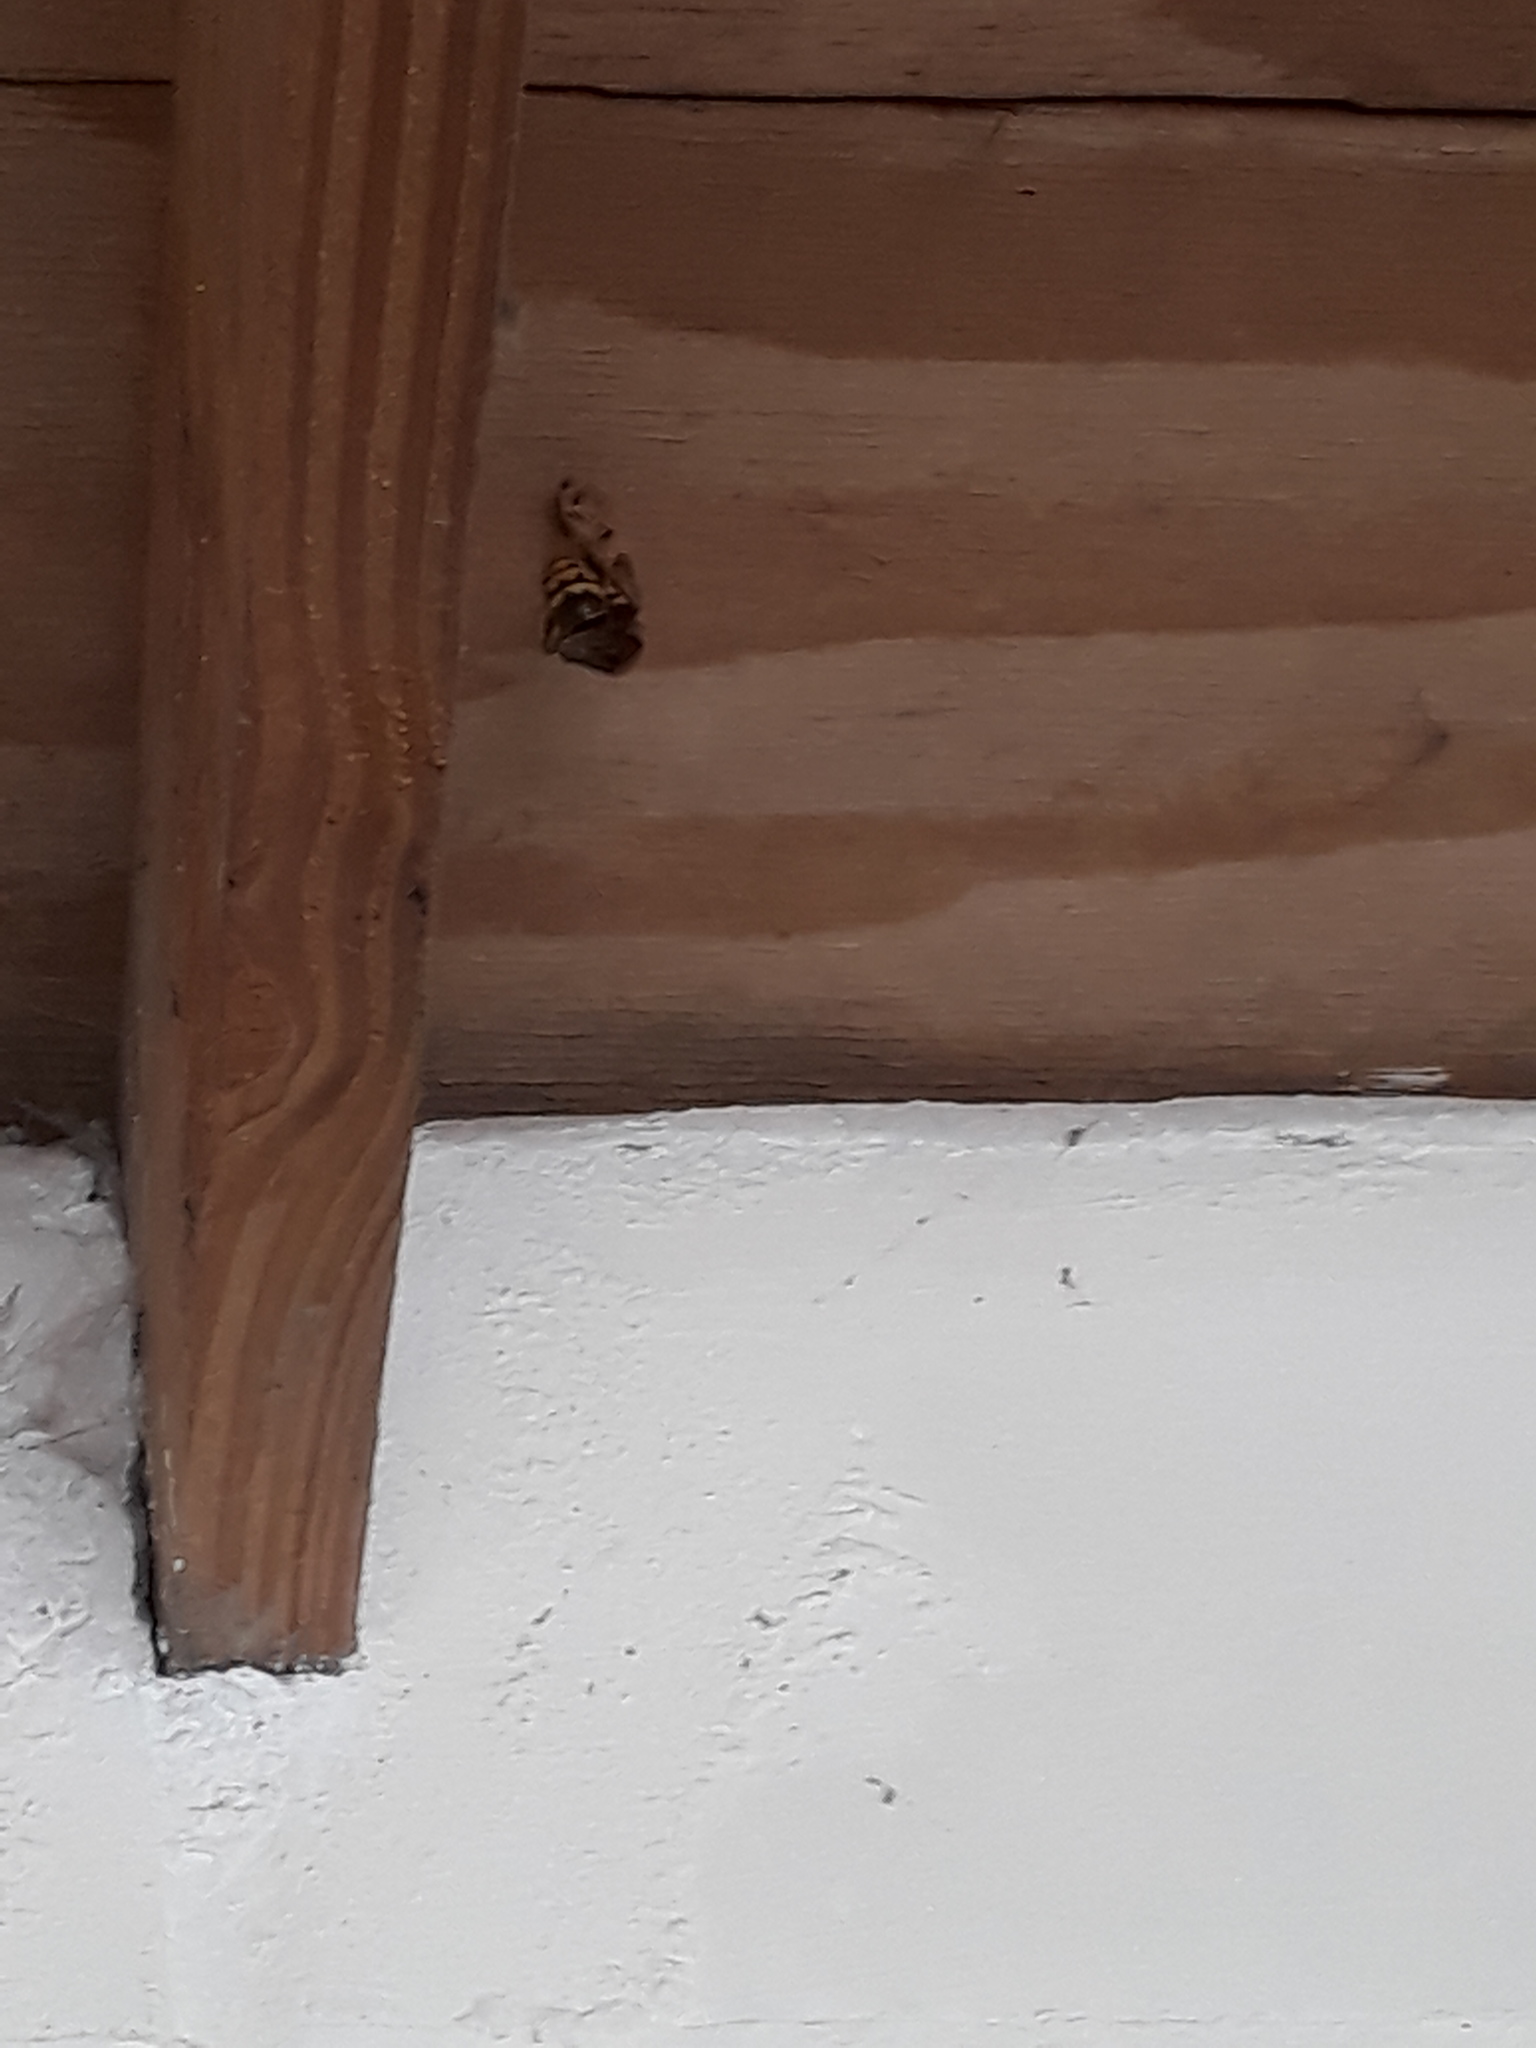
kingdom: Animalia
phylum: Arthropoda
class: Insecta
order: Hymenoptera
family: Vespidae
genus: Vespa
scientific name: Vespa crabro
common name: Hornet
